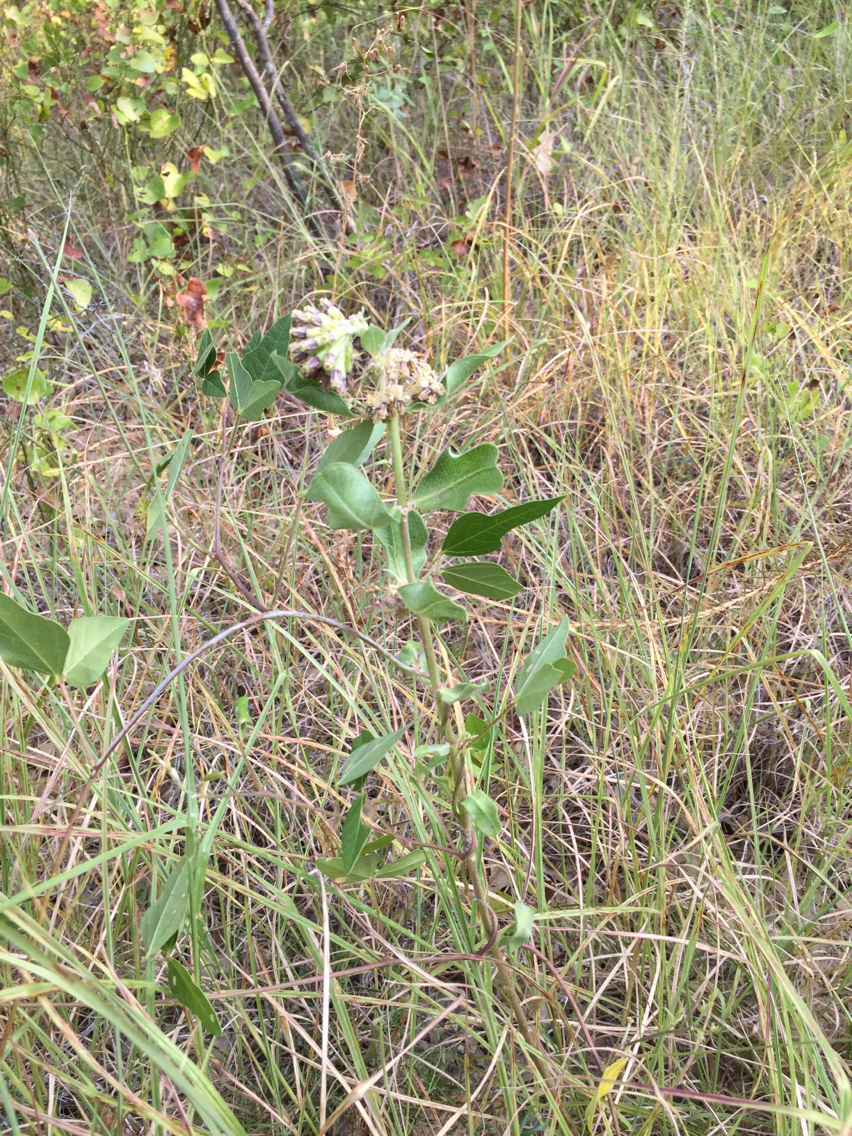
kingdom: Plantae
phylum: Tracheophyta
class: Magnoliopsida
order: Gentianales
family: Apocynaceae
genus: Asclepias
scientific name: Asclepias viridiflora
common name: Green comet milkweed
